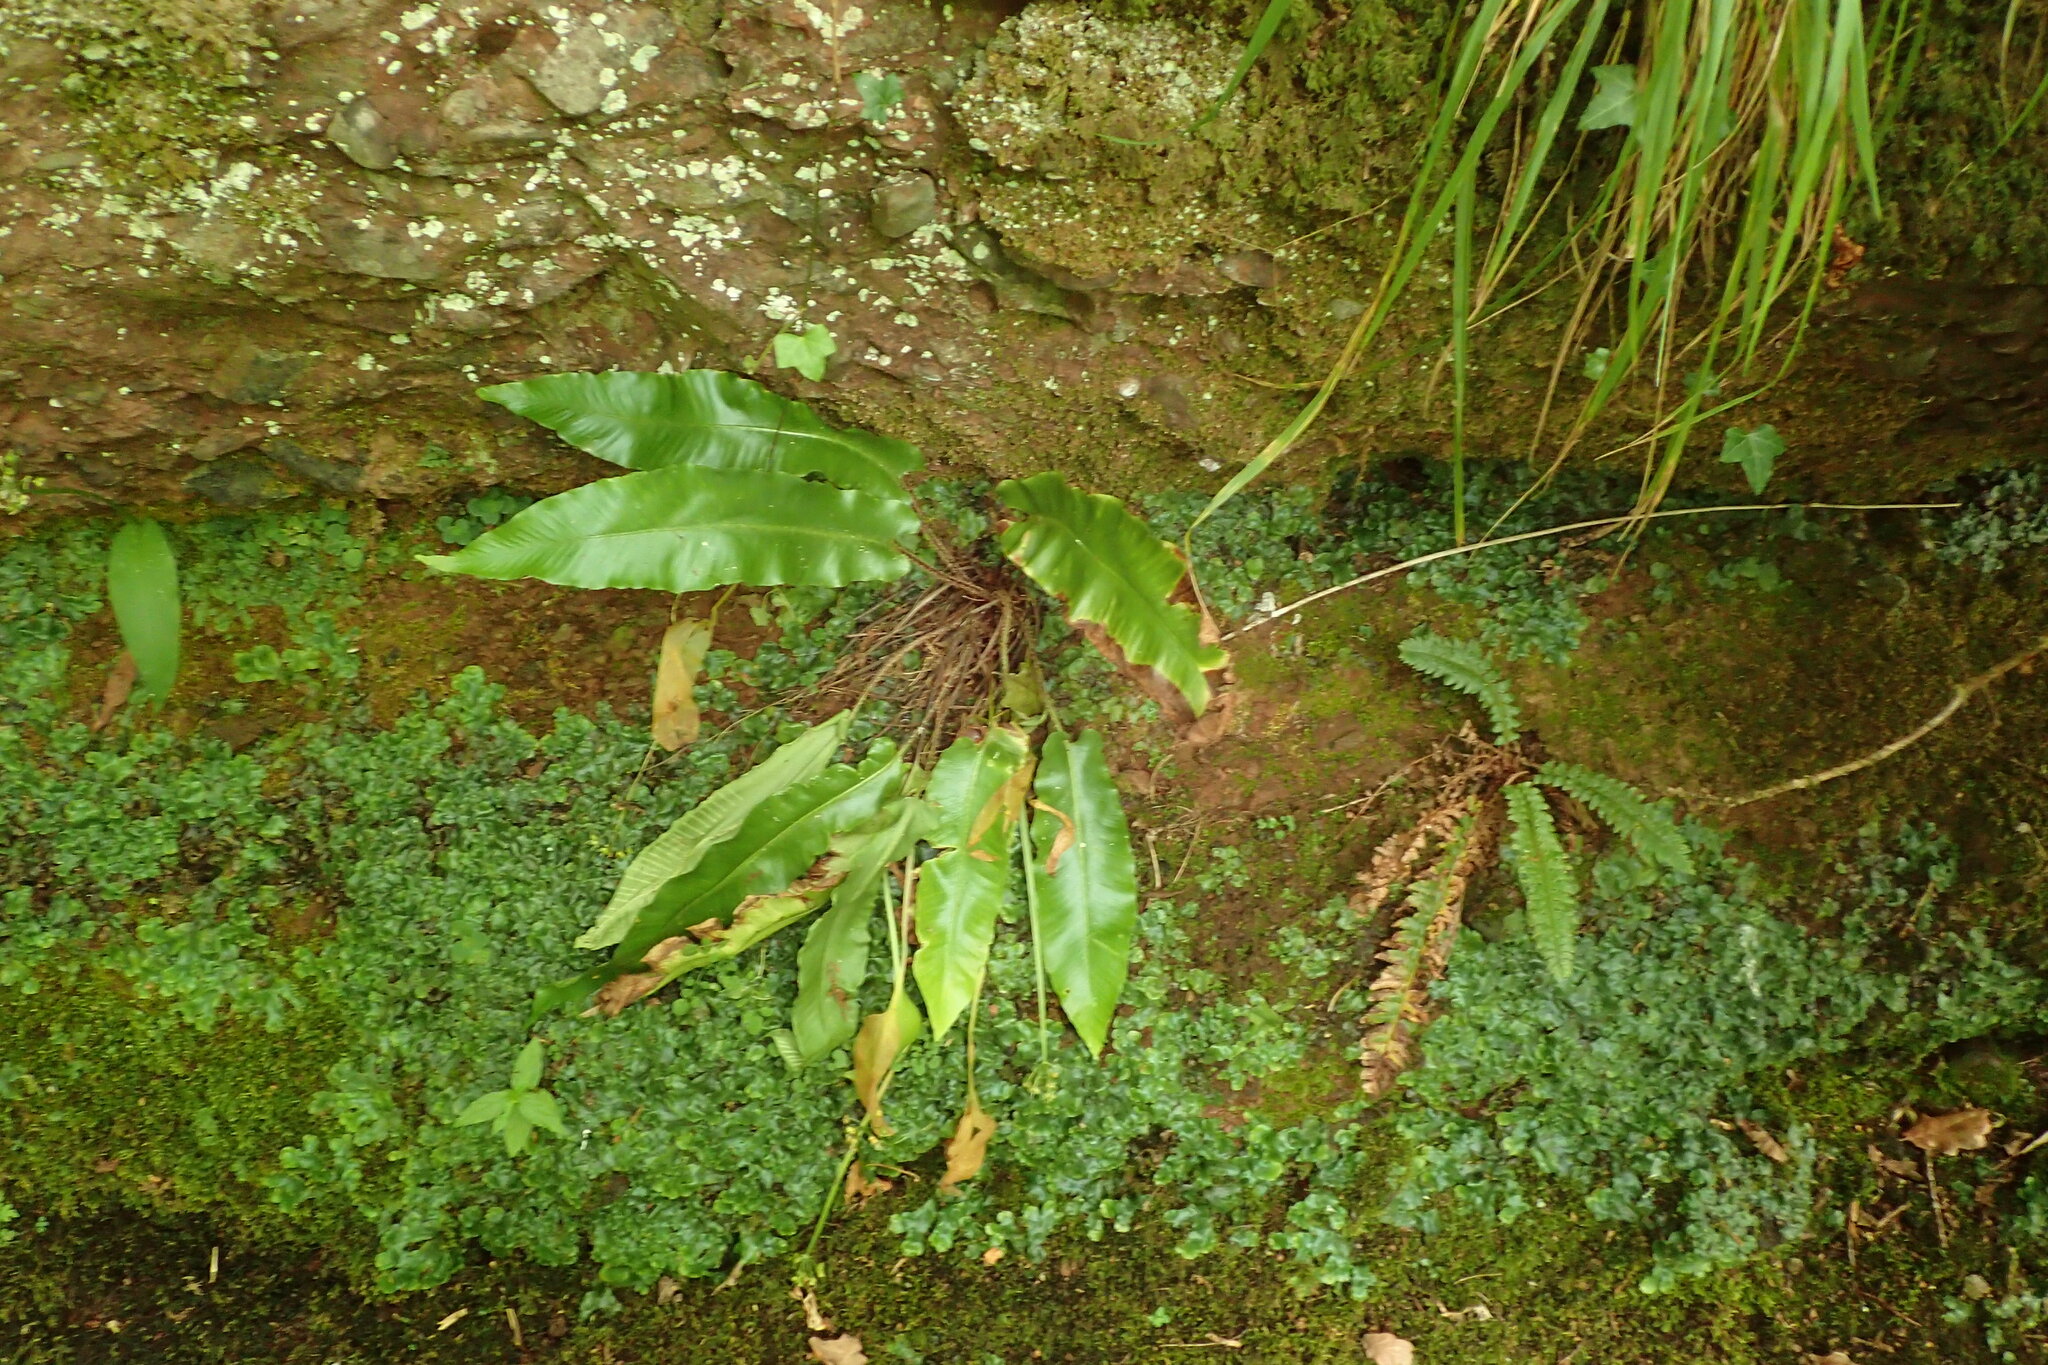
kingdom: Plantae
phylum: Tracheophyta
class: Polypodiopsida
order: Polypodiales
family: Aspleniaceae
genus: Asplenium
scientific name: Asplenium scolopendrium
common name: Hart's-tongue fern
